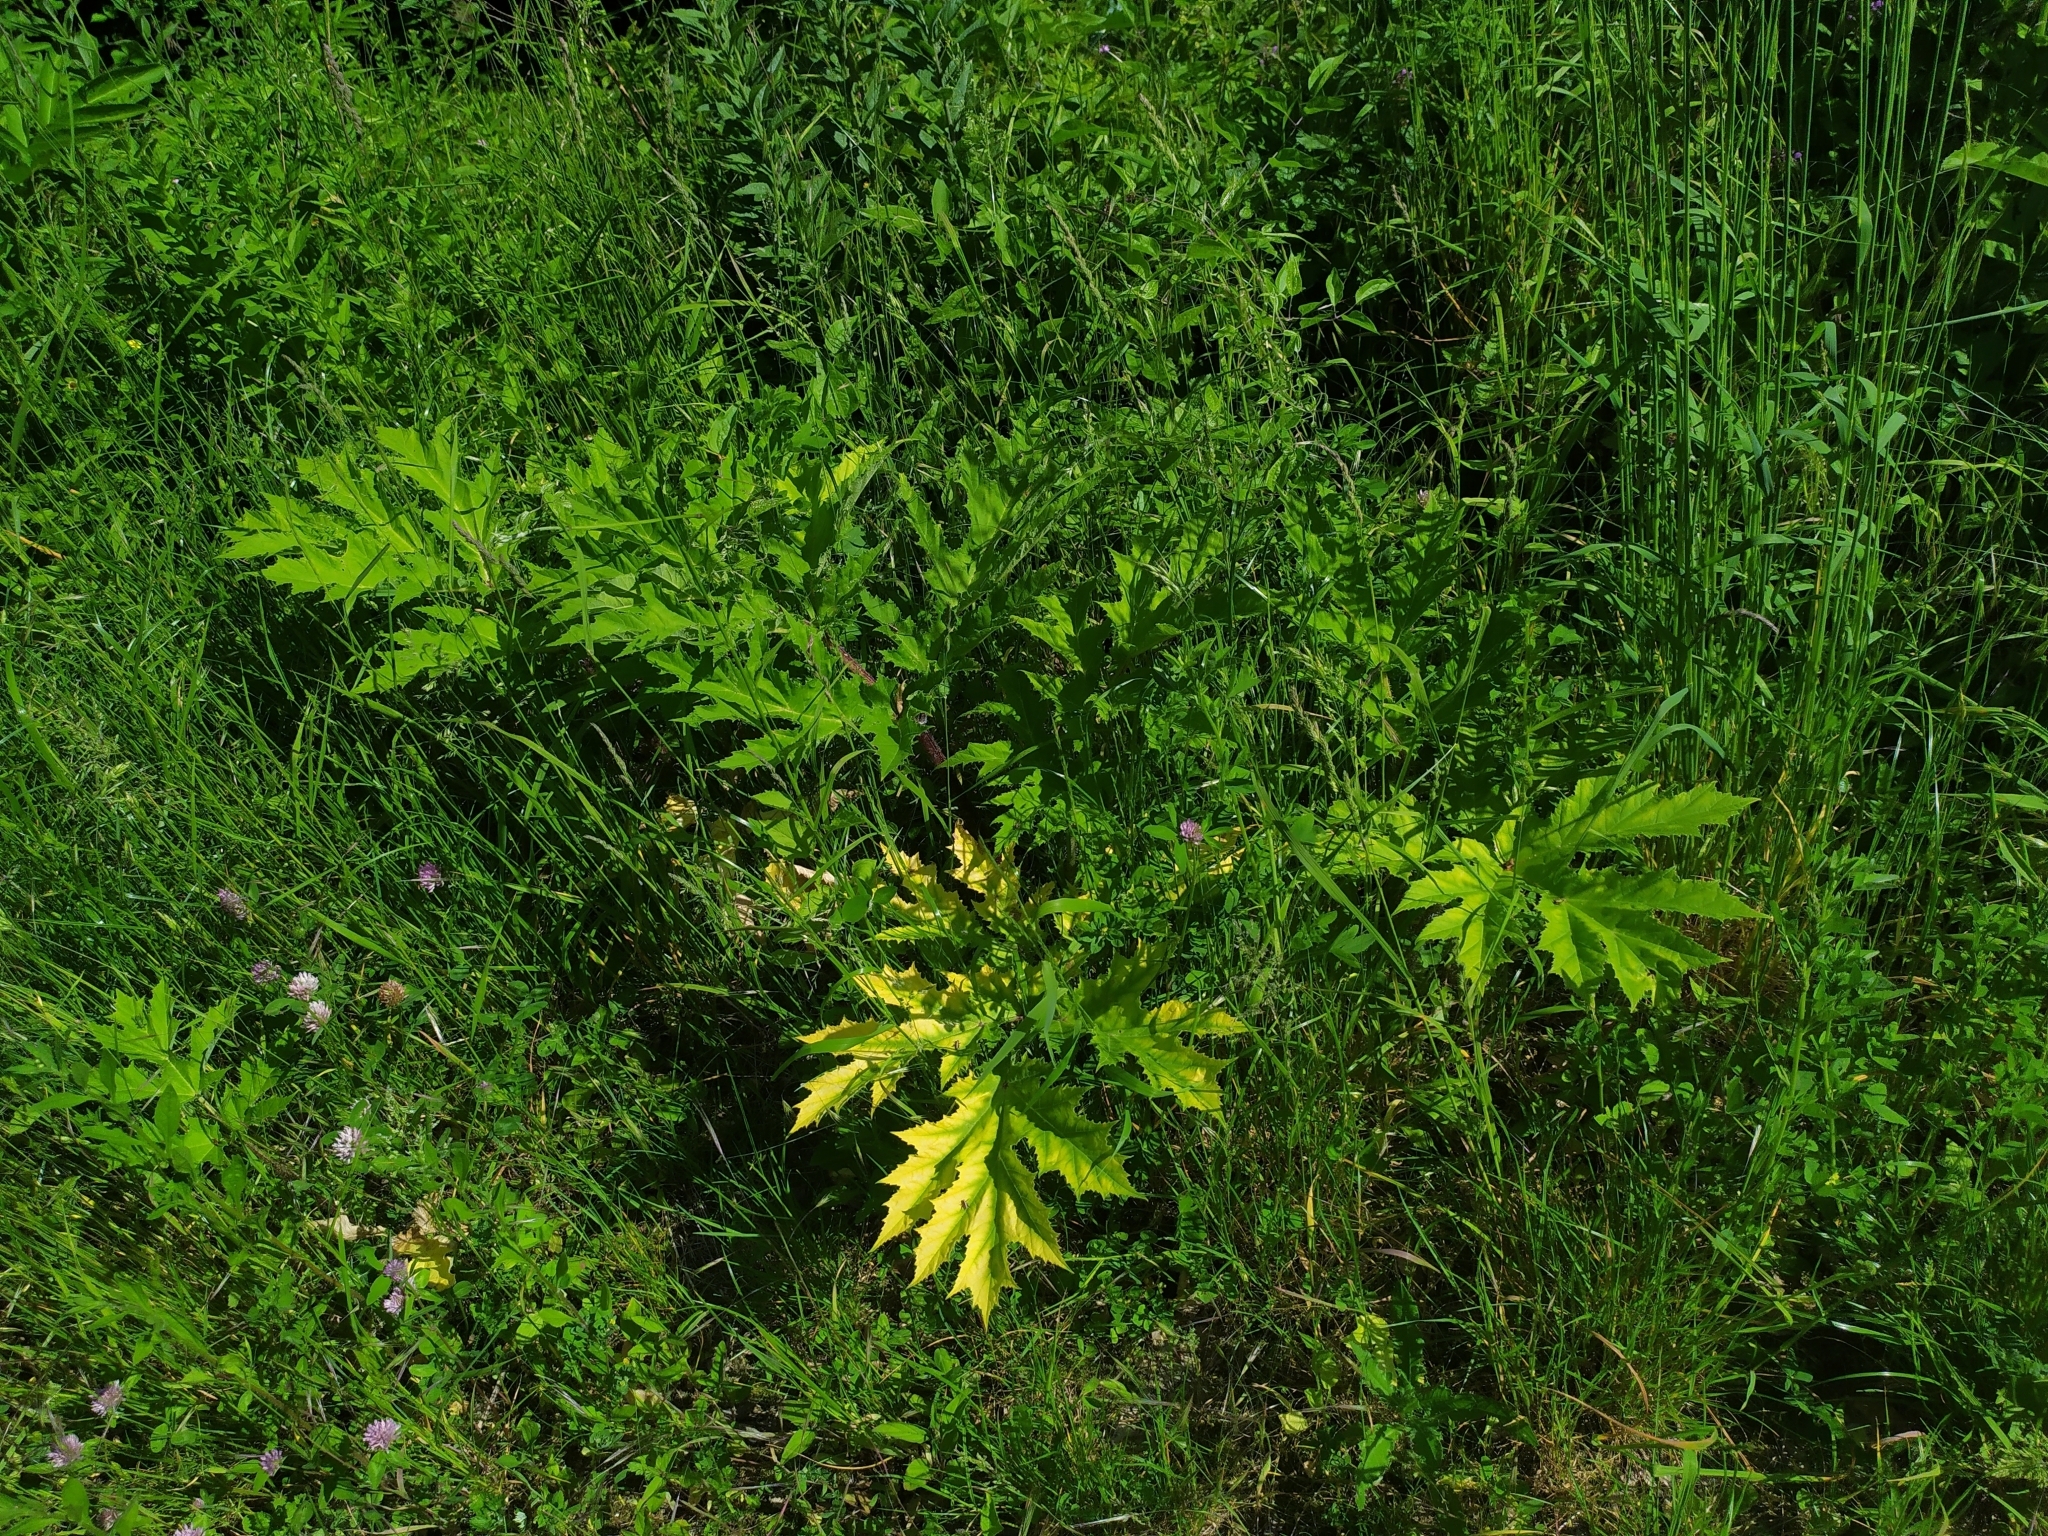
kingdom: Plantae
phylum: Tracheophyta
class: Magnoliopsida
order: Apiales
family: Apiaceae
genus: Heracleum
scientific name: Heracleum mantegazzianum
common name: Giant hogweed
